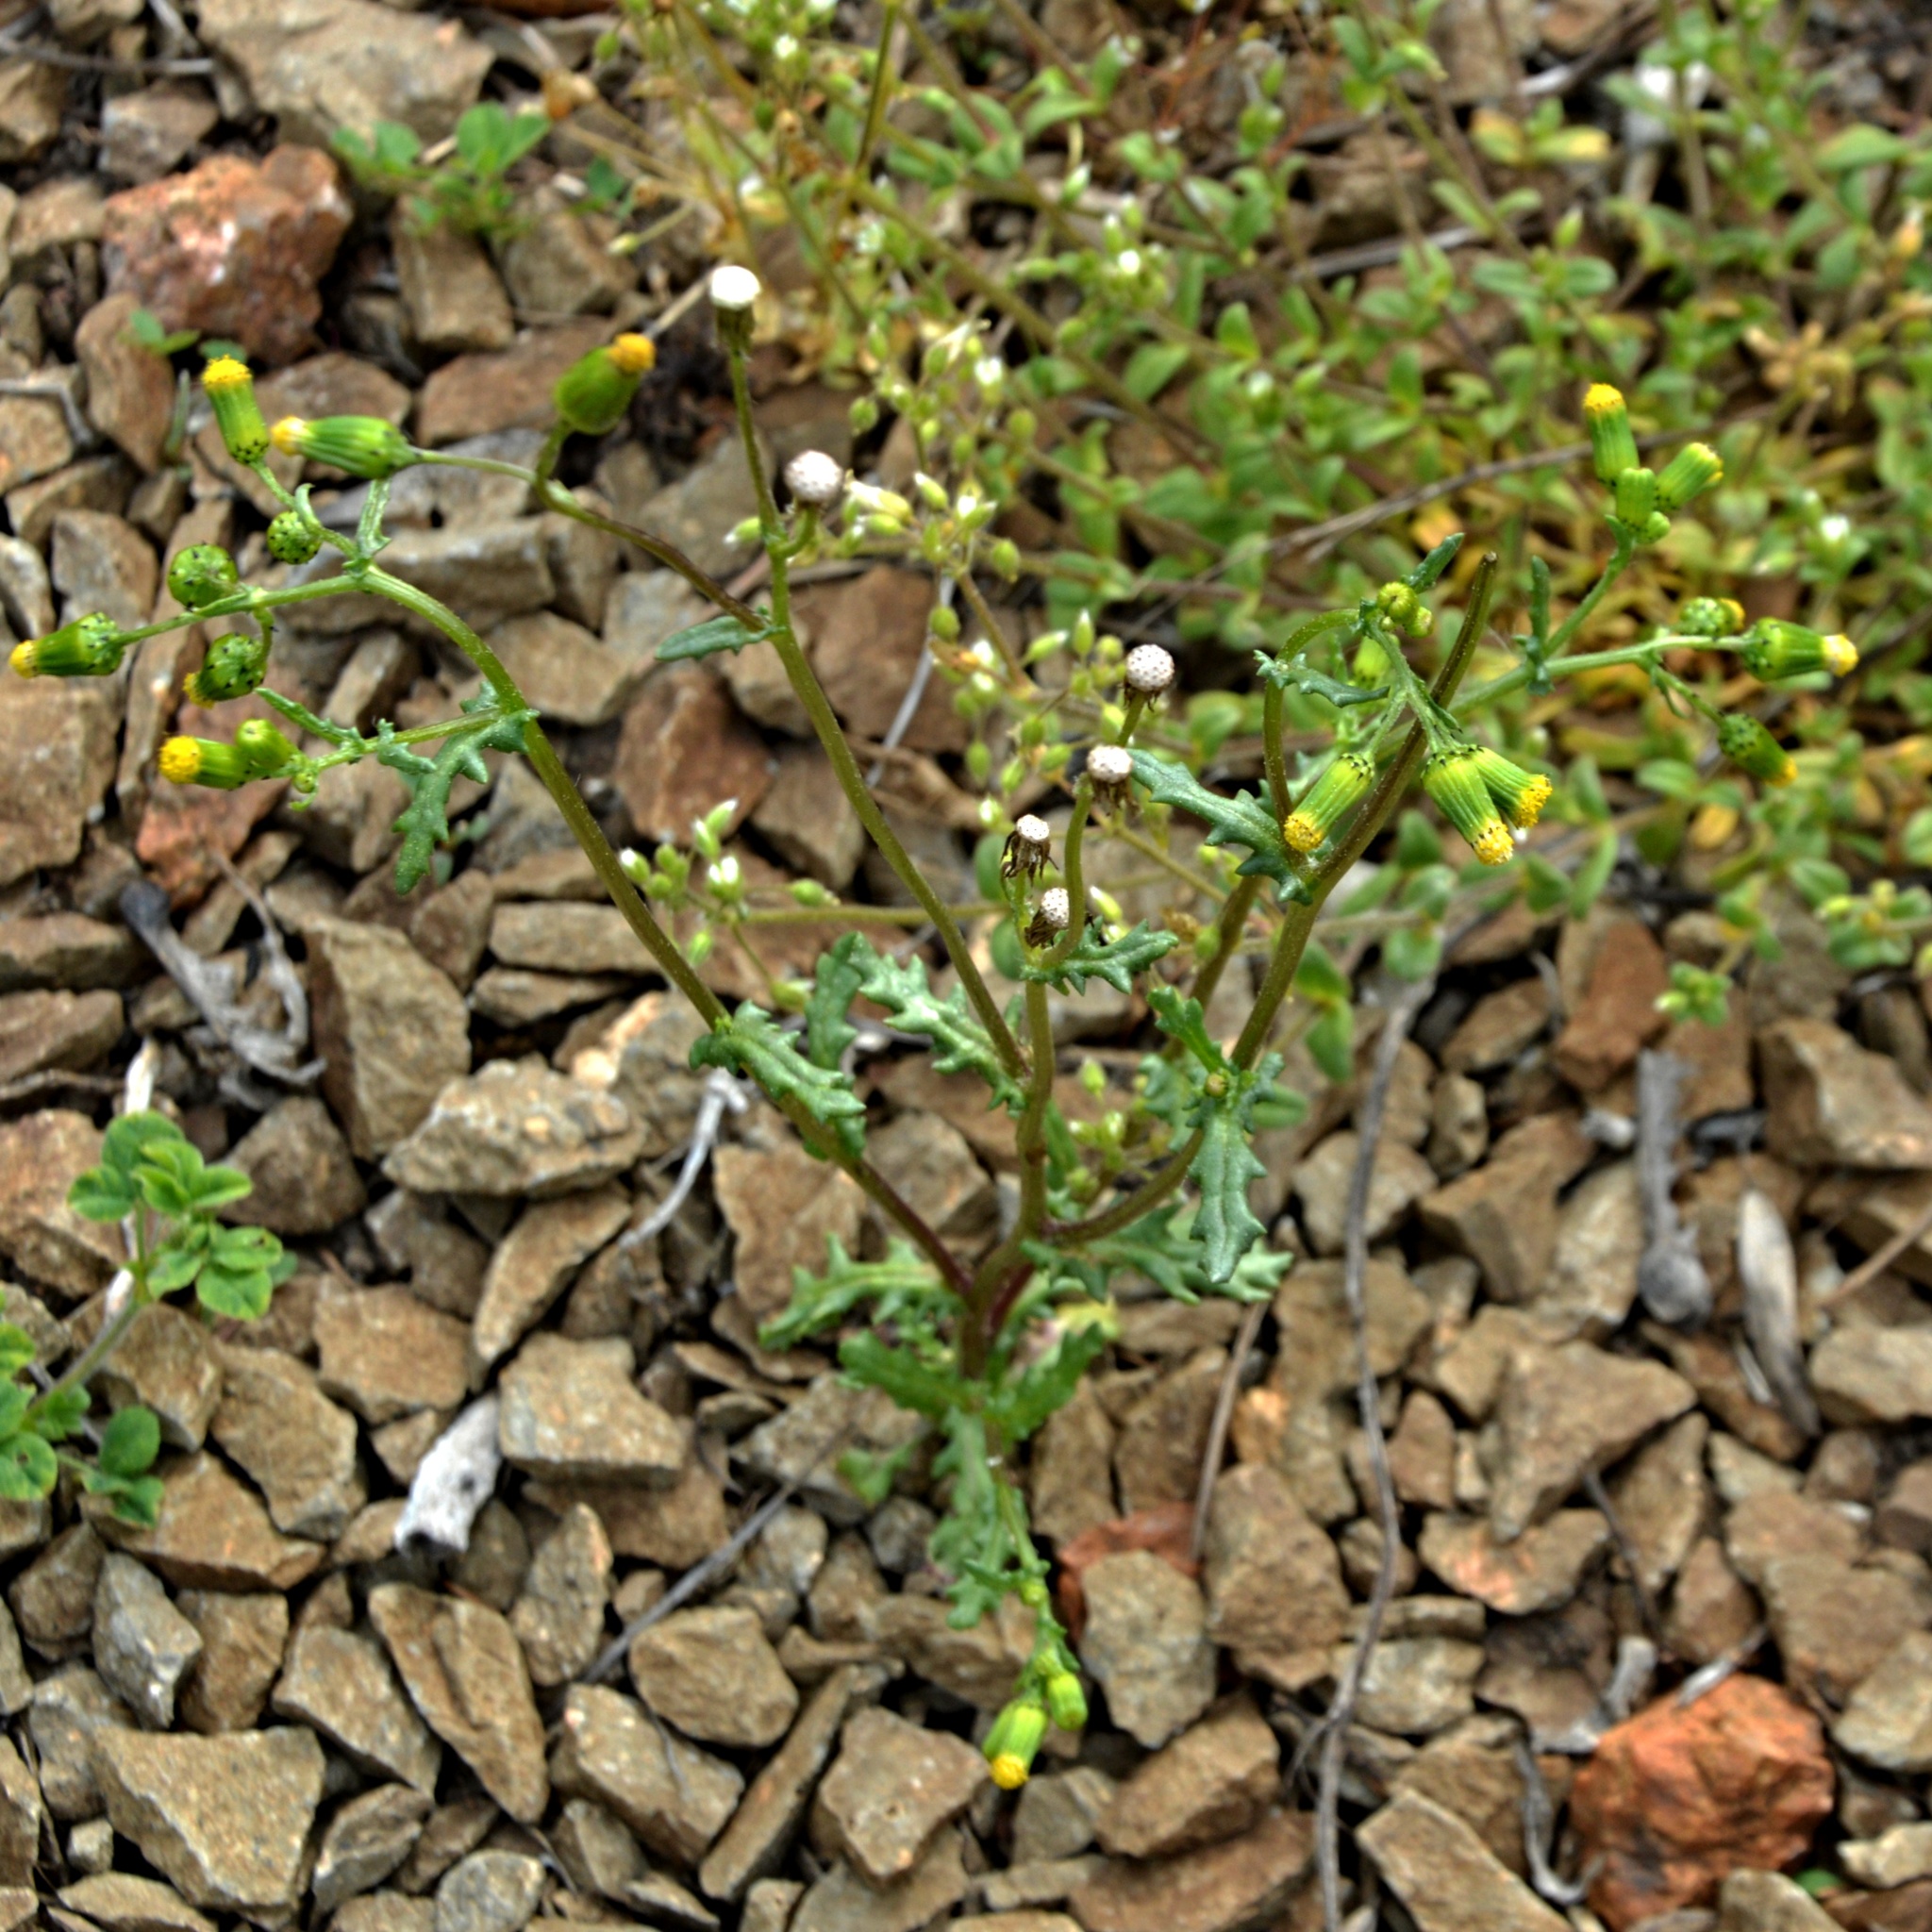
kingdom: Plantae
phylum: Tracheophyta
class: Magnoliopsida
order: Asterales
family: Asteraceae
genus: Senecio
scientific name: Senecio vulgaris
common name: Old-man-in-the-spring
